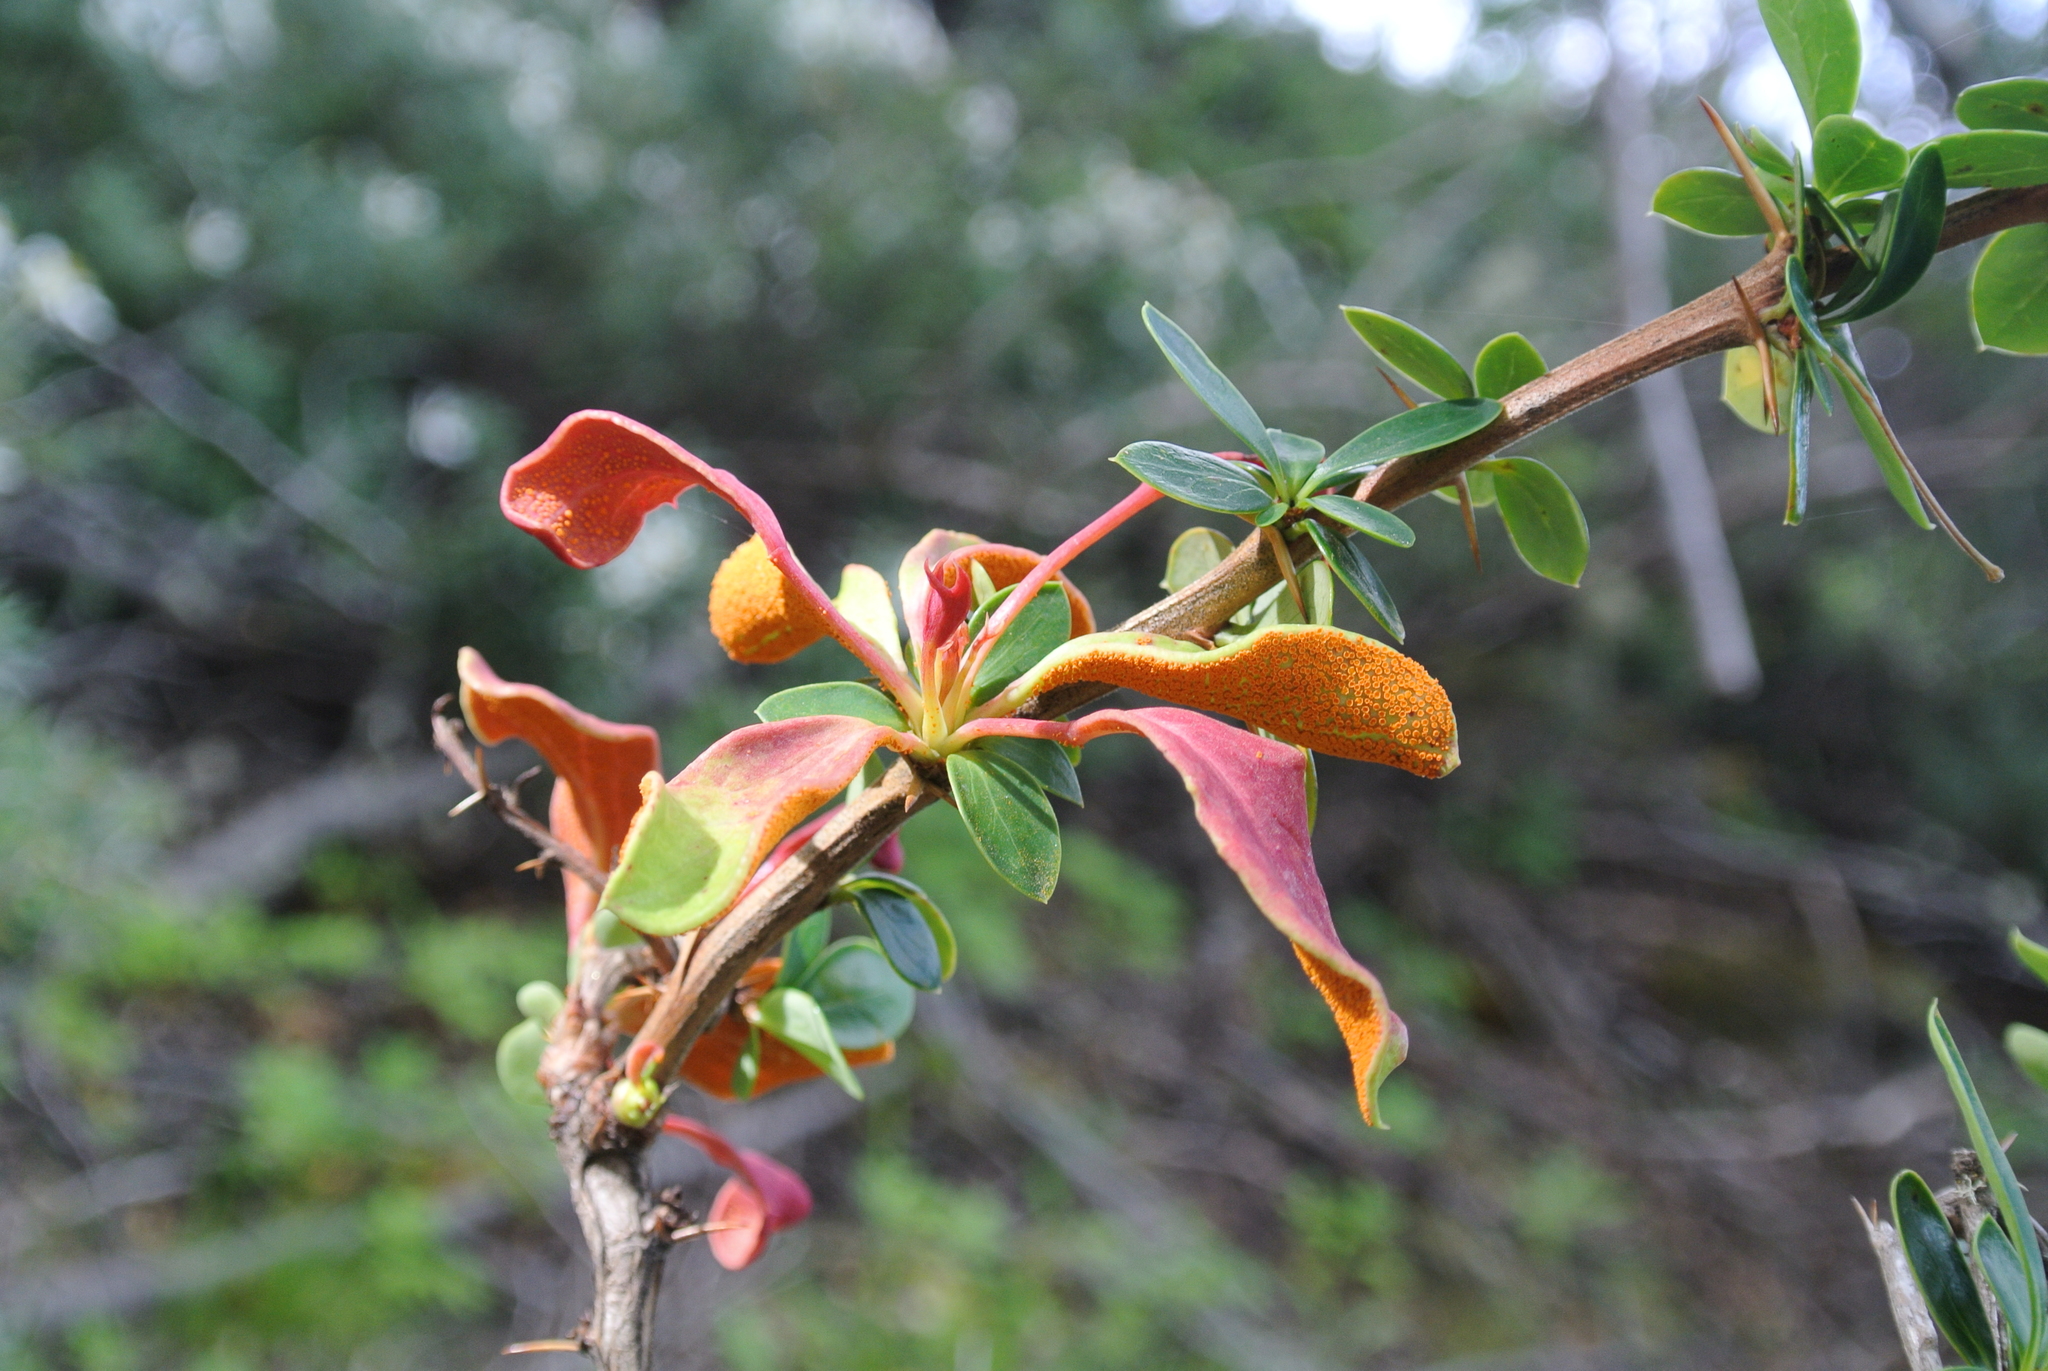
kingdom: Fungi
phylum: Basidiomycota
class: Pucciniomycetes
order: Pucciniales
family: Pucciniaceae
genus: Puccinia
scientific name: Puccinia magellanica
